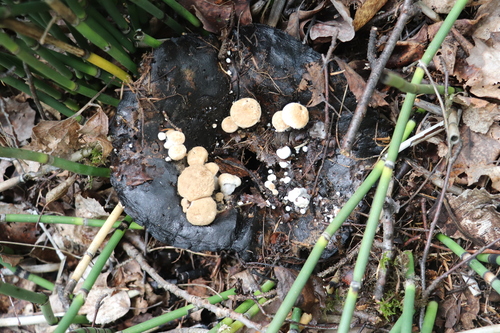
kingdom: Fungi
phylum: Basidiomycota
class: Agaricomycetes
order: Agaricales
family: Lyophyllaceae
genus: Asterophora
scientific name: Asterophora lycoperdoides
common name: Pick-a-back toadstool
